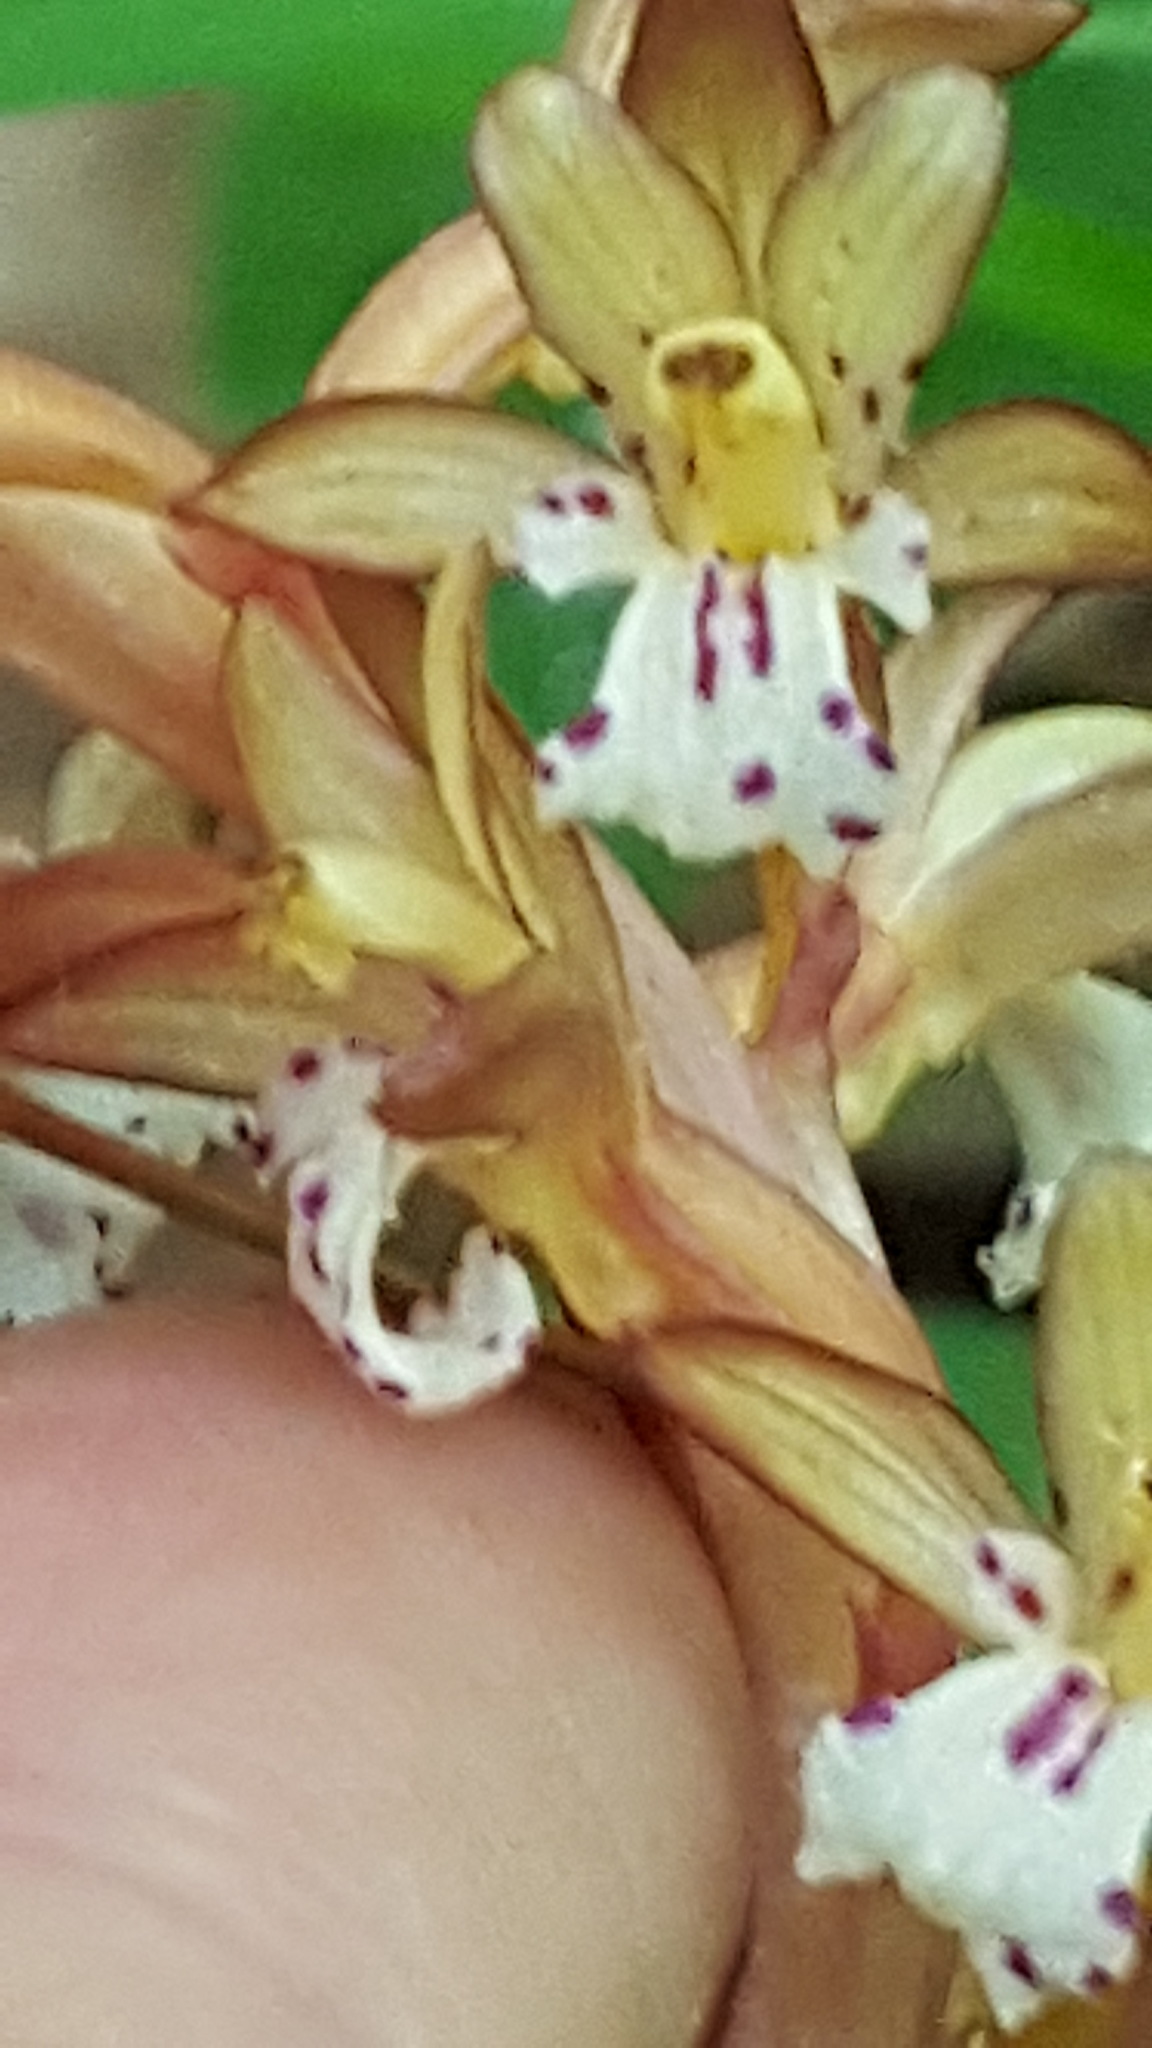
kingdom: Plantae
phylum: Tracheophyta
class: Liliopsida
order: Asparagales
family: Orchidaceae
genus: Corallorhiza
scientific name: Corallorhiza maculata
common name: Spotted coralroot
